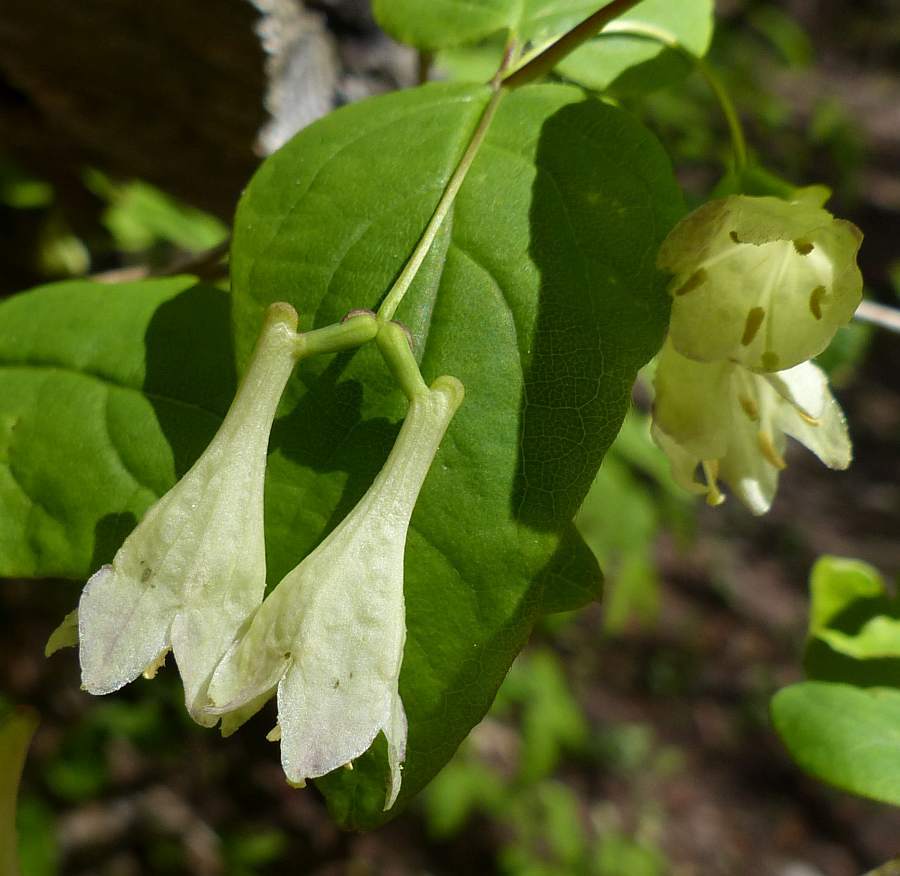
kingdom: Plantae
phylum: Tracheophyta
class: Magnoliopsida
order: Dipsacales
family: Caprifoliaceae
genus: Lonicera
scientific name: Lonicera canadensis
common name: American fly-honeysuckle
